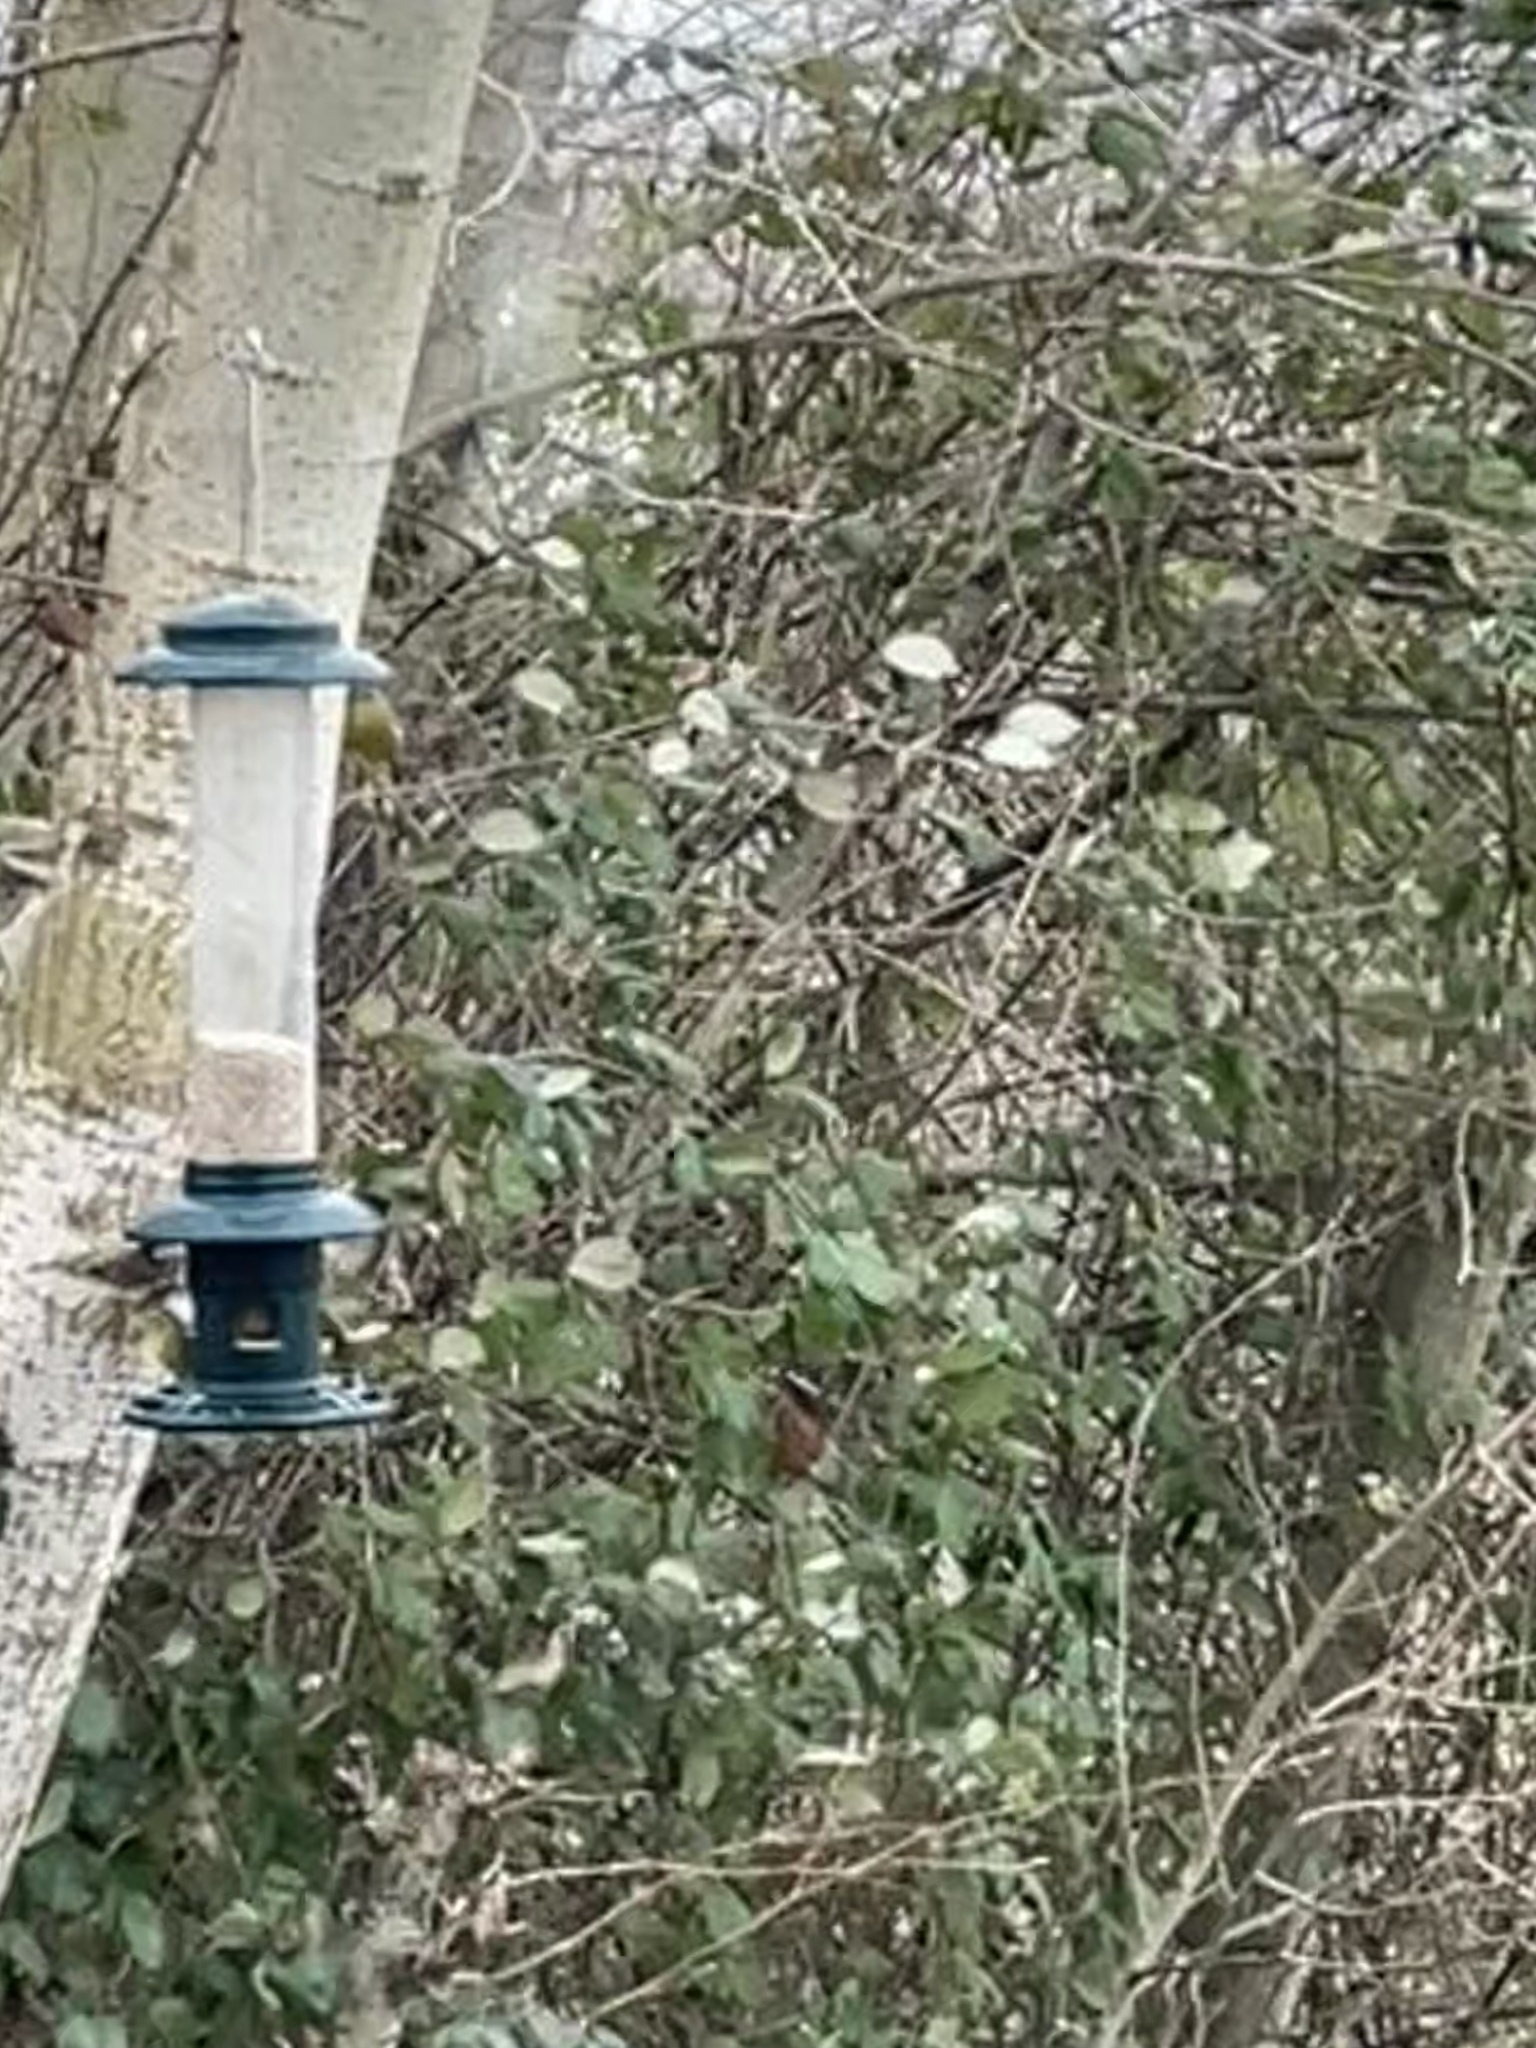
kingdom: Plantae
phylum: Tracheophyta
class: Liliopsida
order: Poales
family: Poaceae
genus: Chloris
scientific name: Chloris chloris
